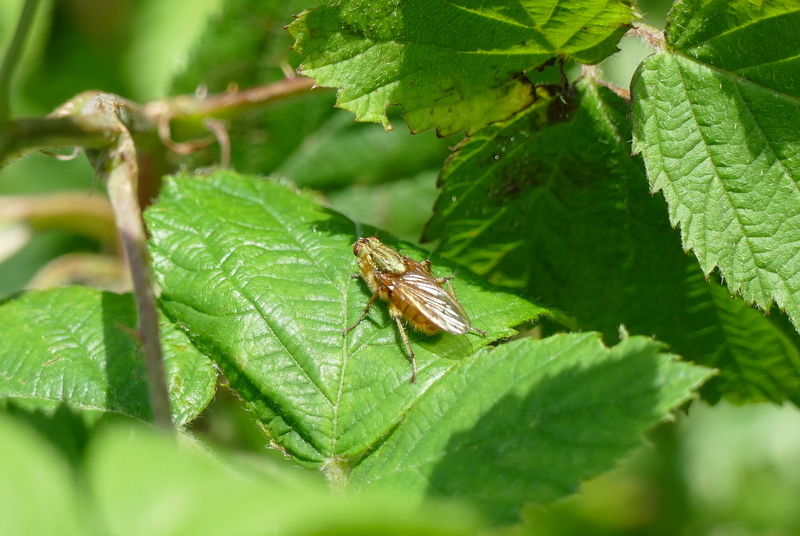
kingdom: Animalia
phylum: Arthropoda
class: Insecta
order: Diptera
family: Scathophagidae
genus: Scathophaga
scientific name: Scathophaga stercoraria
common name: Yellow dung fly
